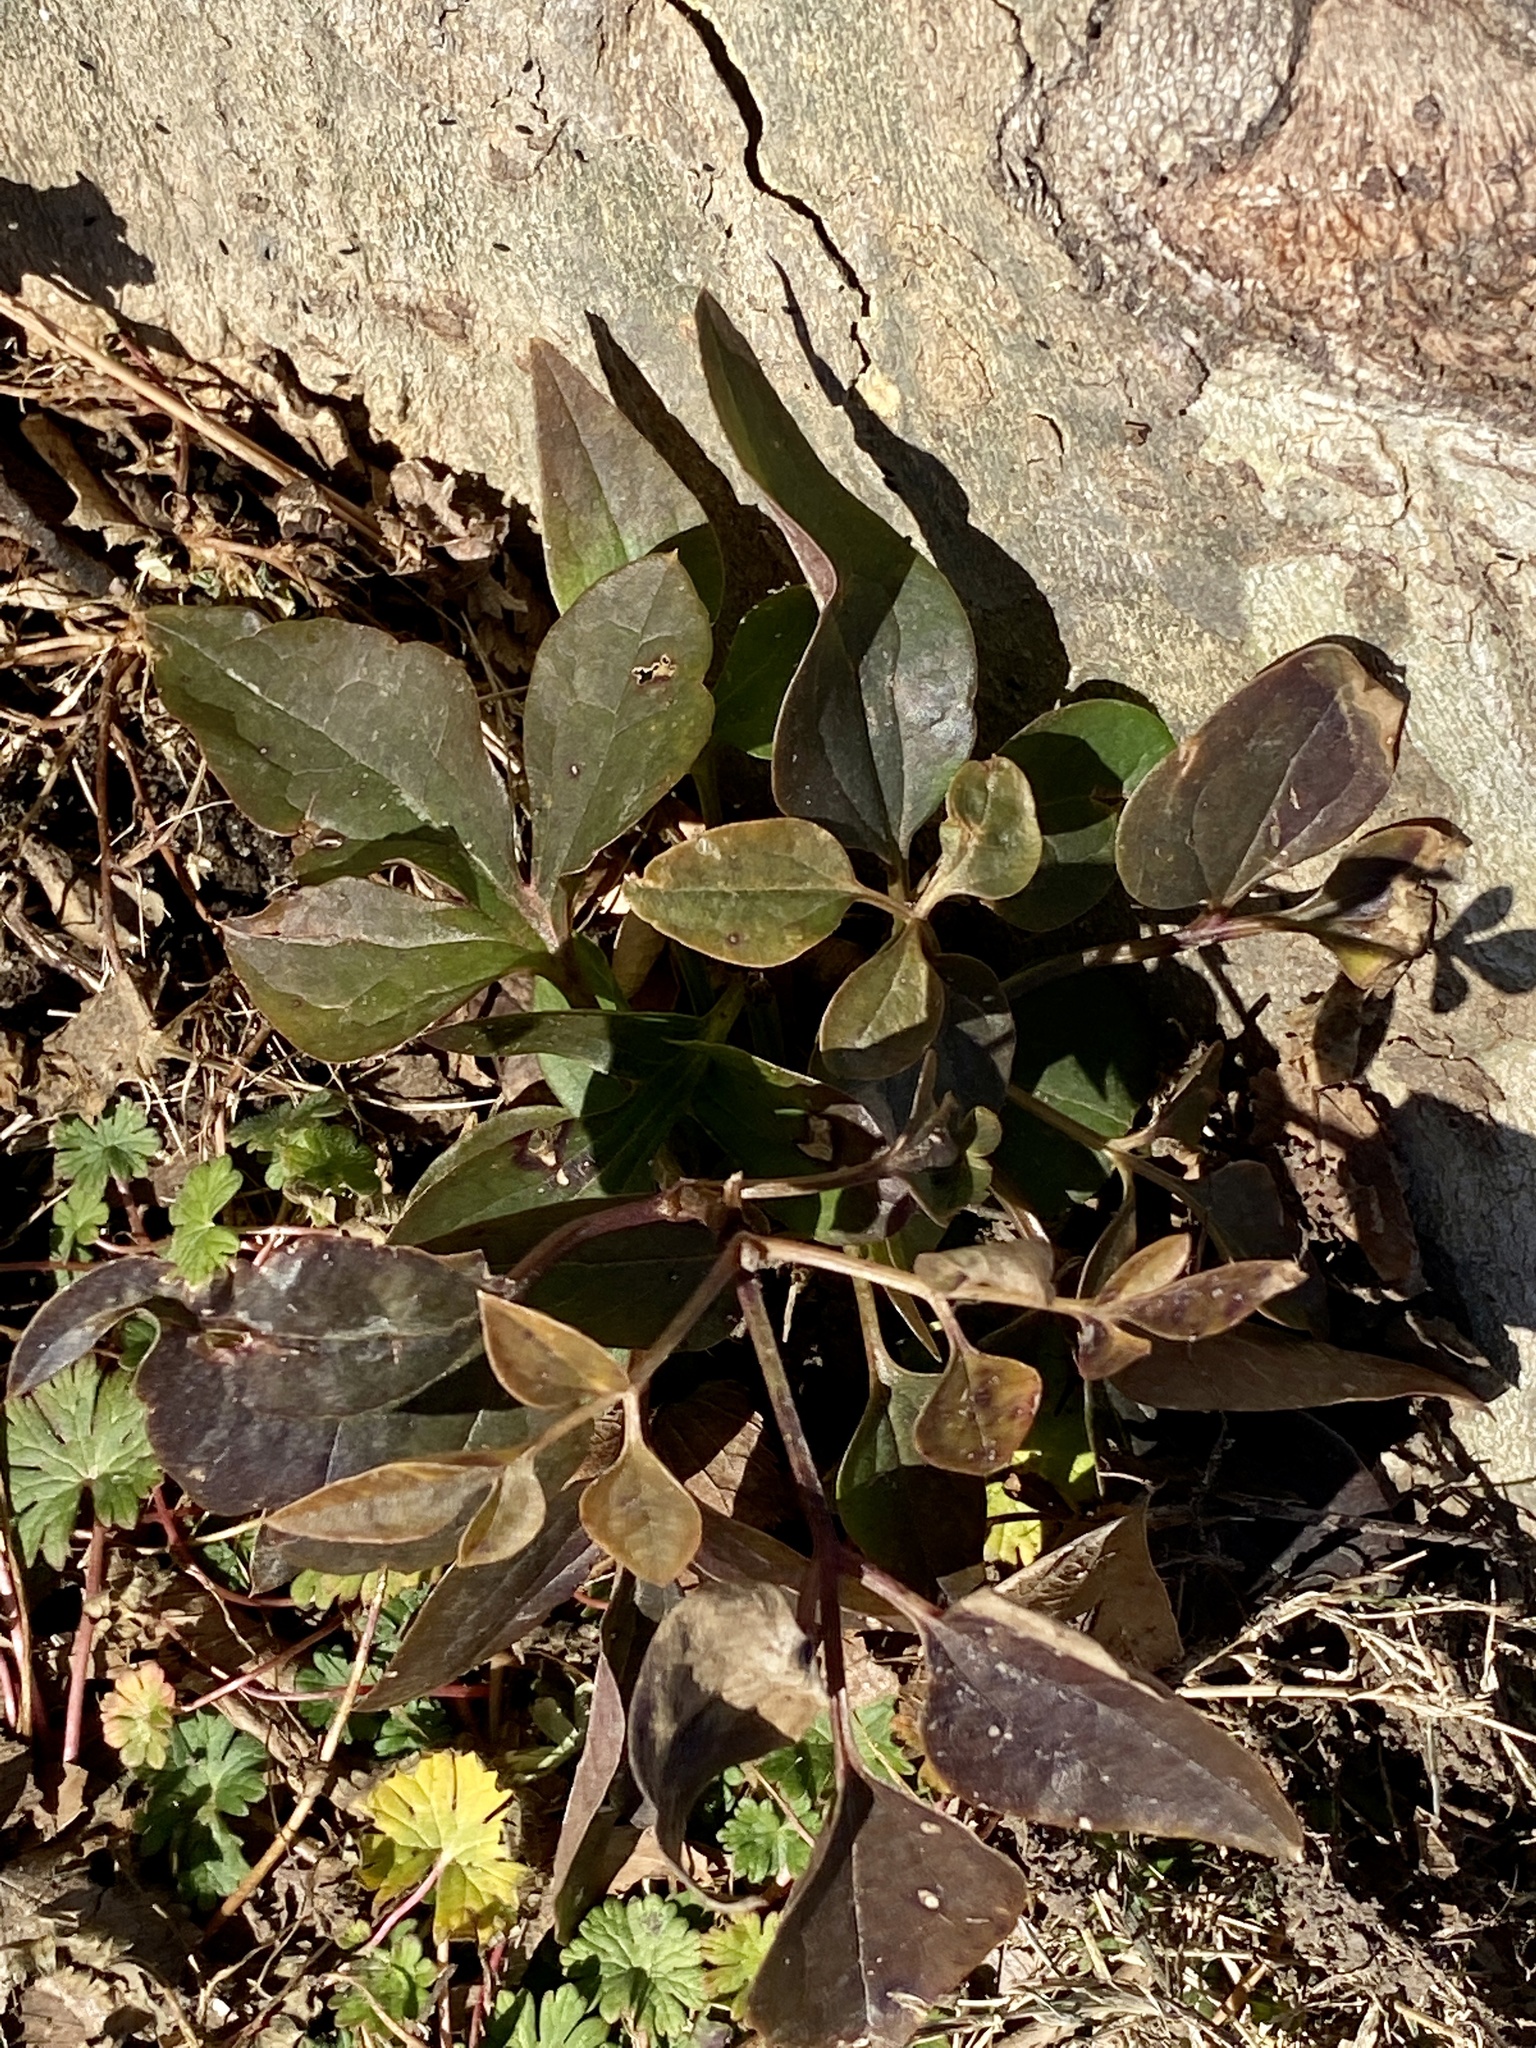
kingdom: Plantae
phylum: Tracheophyta
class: Magnoliopsida
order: Ranunculales
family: Ranunculaceae
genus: Clematis
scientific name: Clematis terniflora
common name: Sweet autumn clematis
